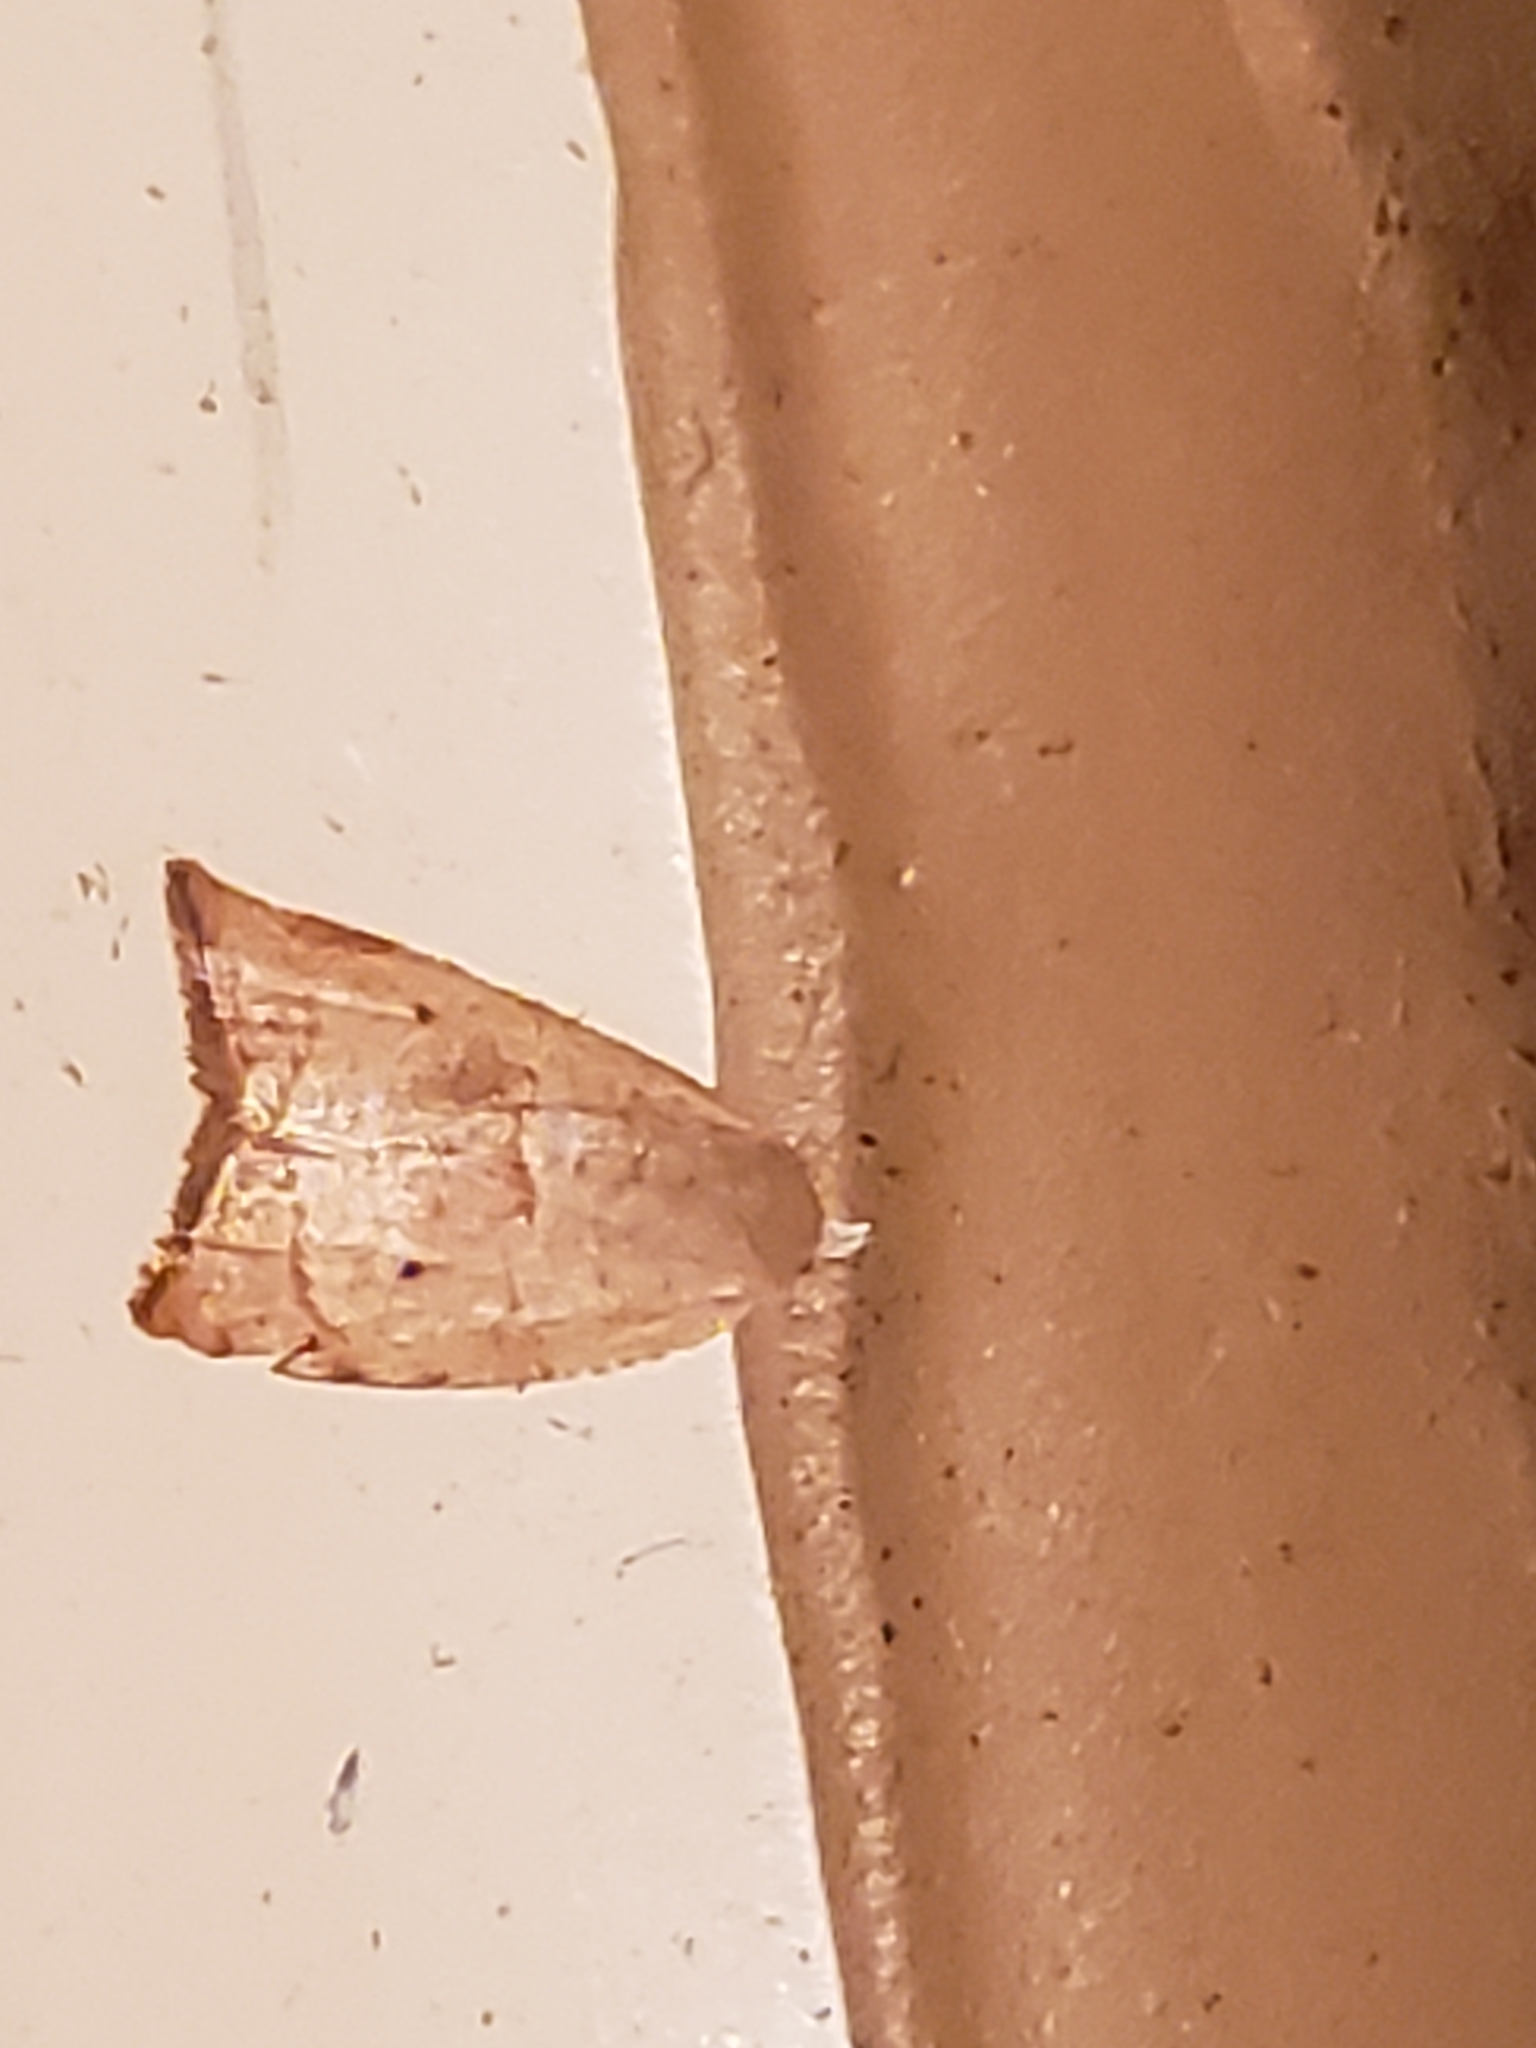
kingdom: Animalia
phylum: Arthropoda
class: Insecta
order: Lepidoptera
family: Tortricidae
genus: Coelostathma
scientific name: Coelostathma discopunctana
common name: Batman moth
